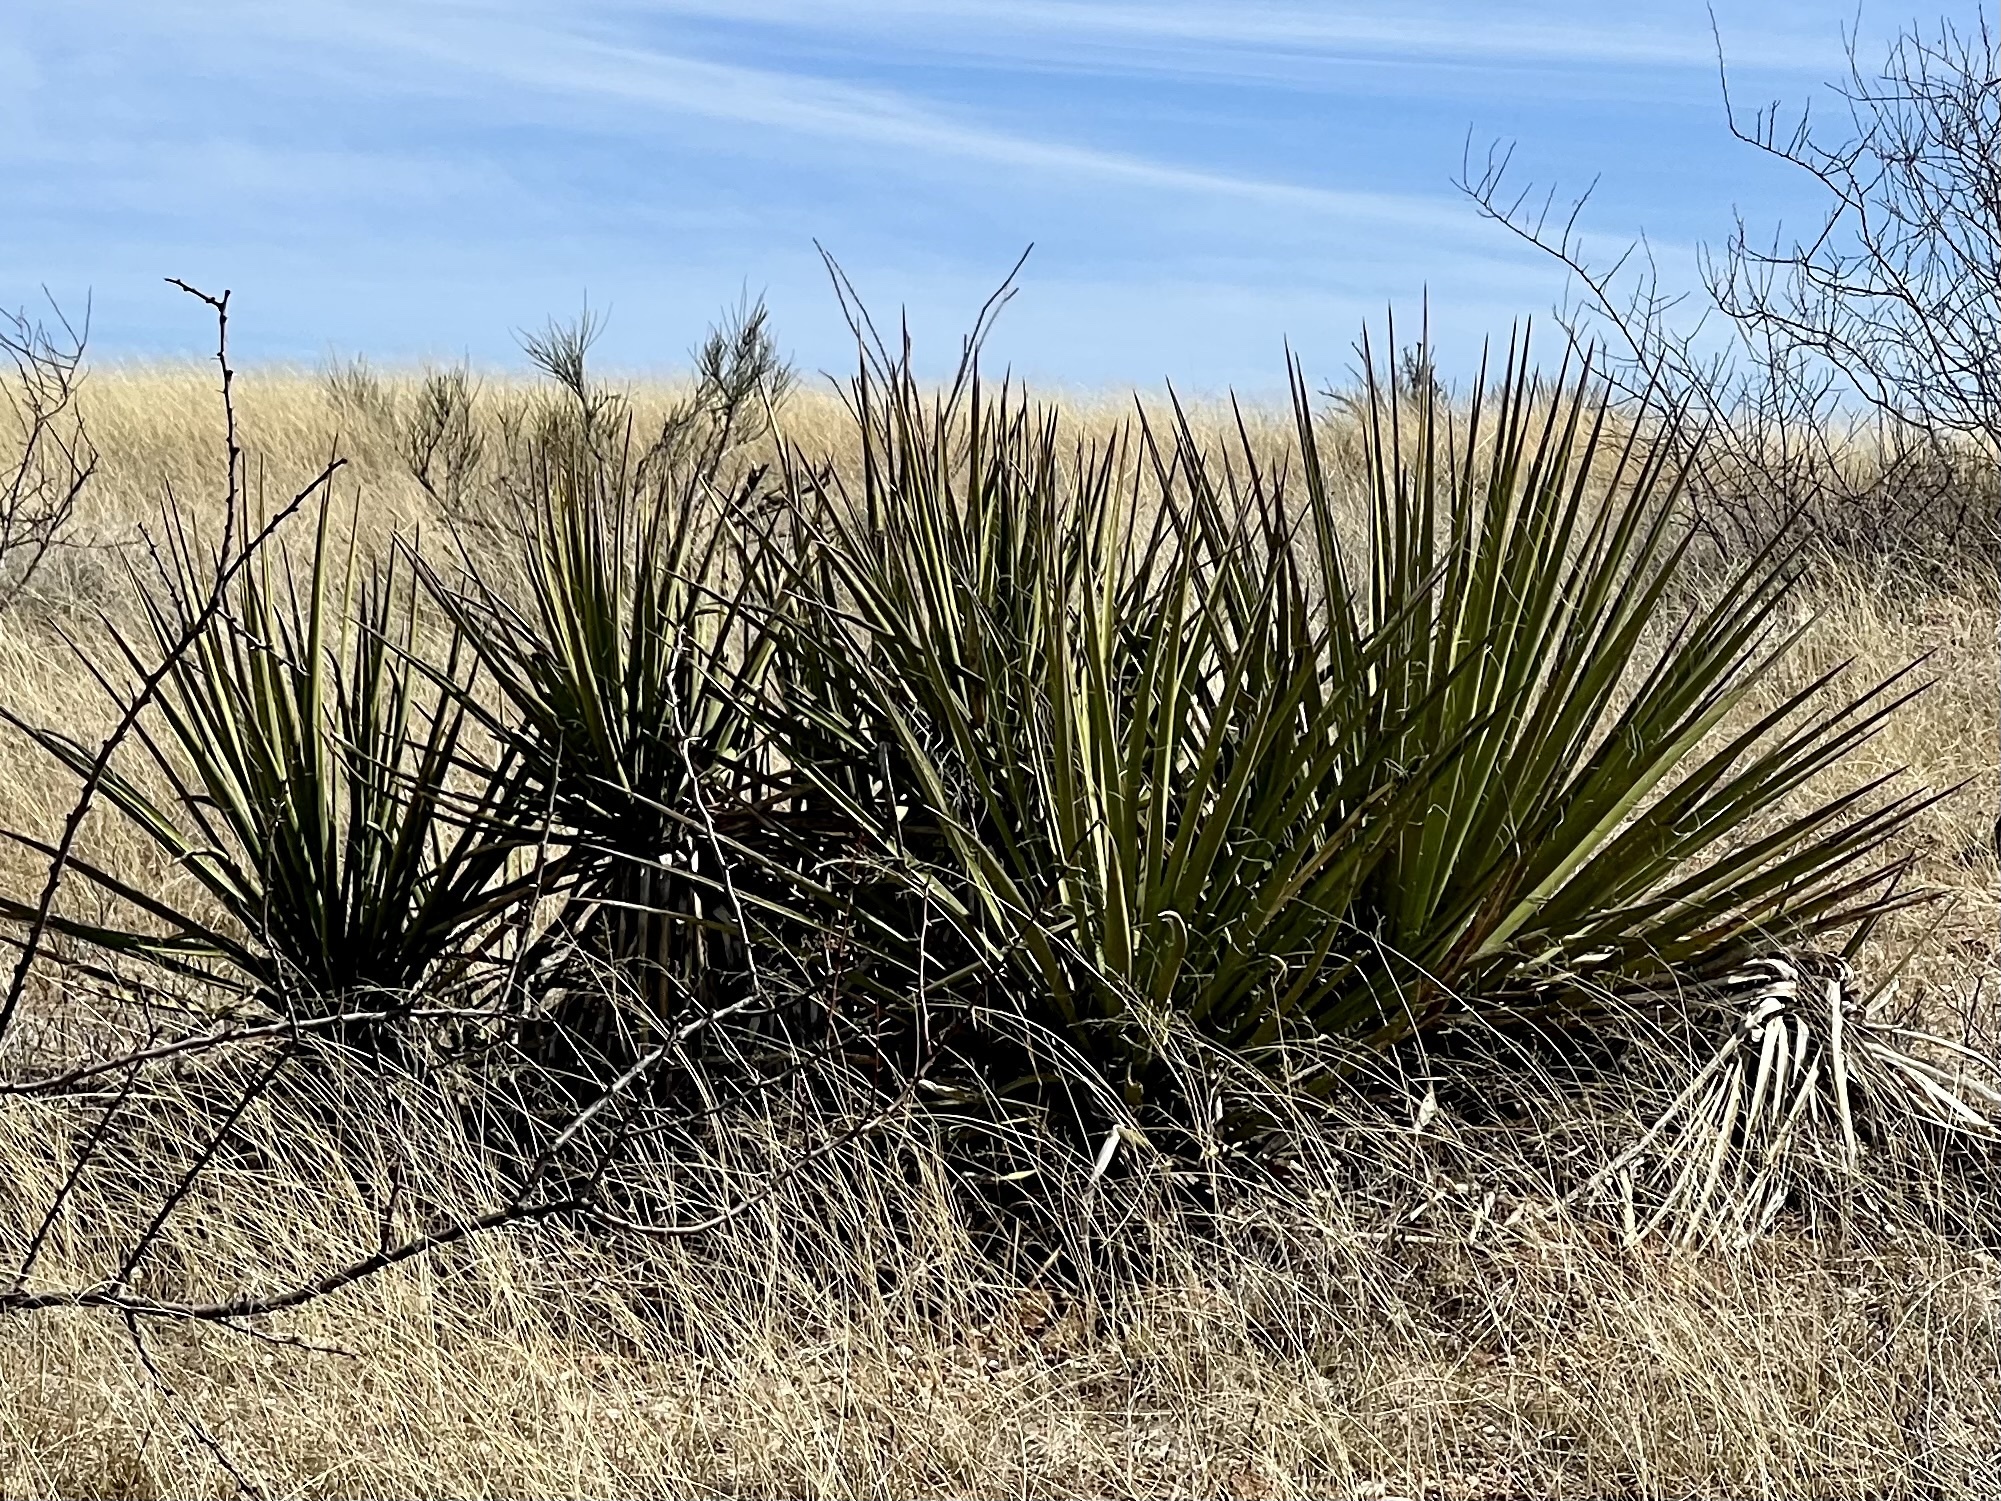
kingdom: Plantae
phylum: Tracheophyta
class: Liliopsida
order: Asparagales
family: Asparagaceae
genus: Yucca
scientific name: Yucca baccata
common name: Banana yucca
